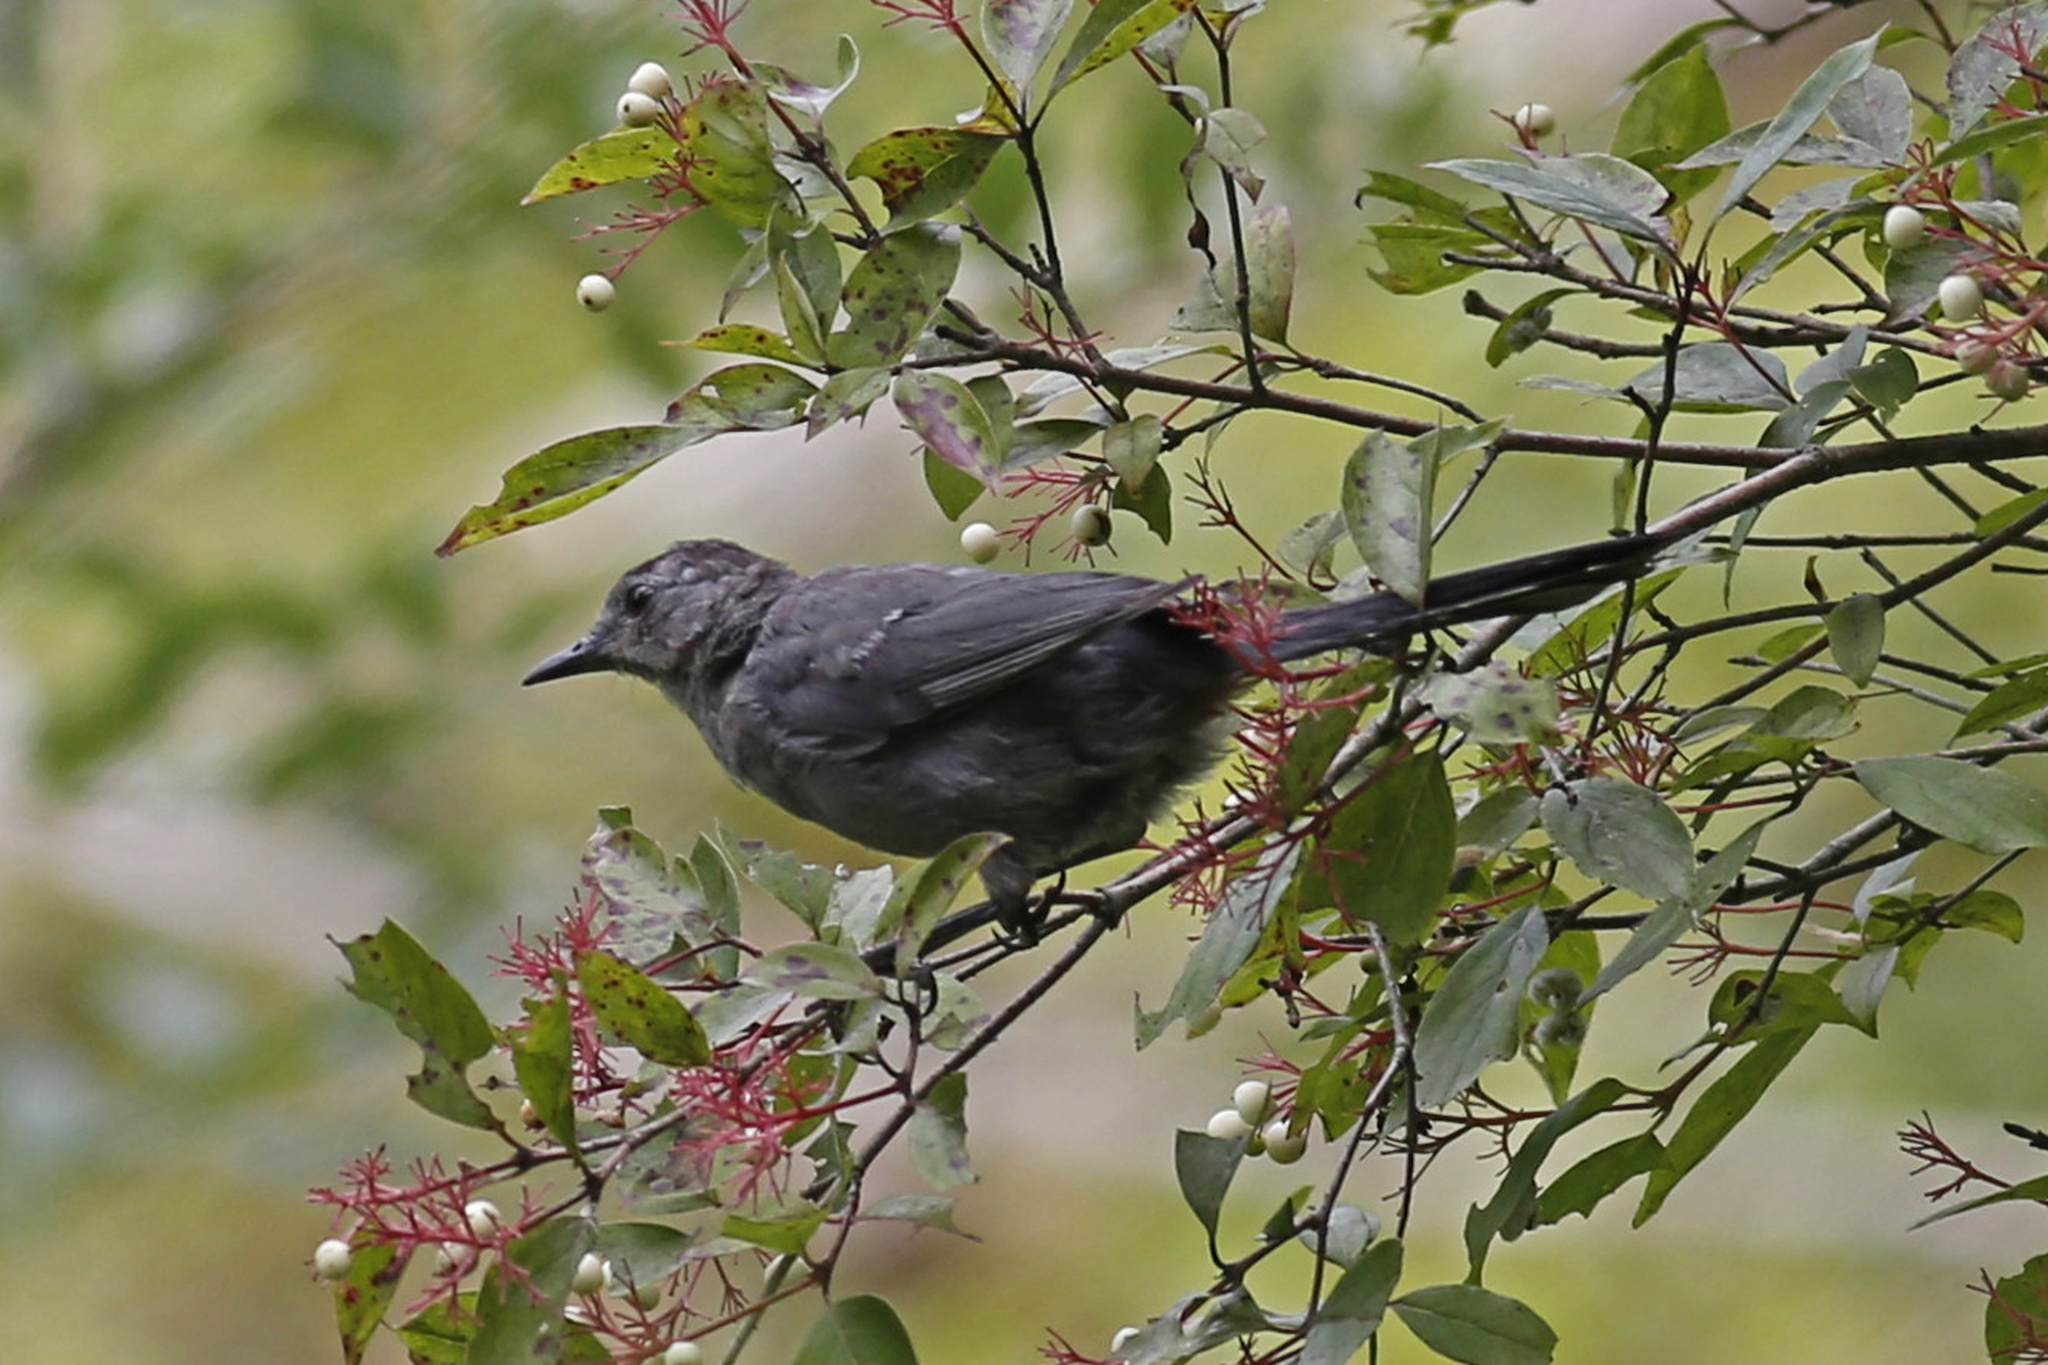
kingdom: Animalia
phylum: Chordata
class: Aves
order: Passeriformes
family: Mimidae
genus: Dumetella
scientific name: Dumetella carolinensis
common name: Gray catbird
